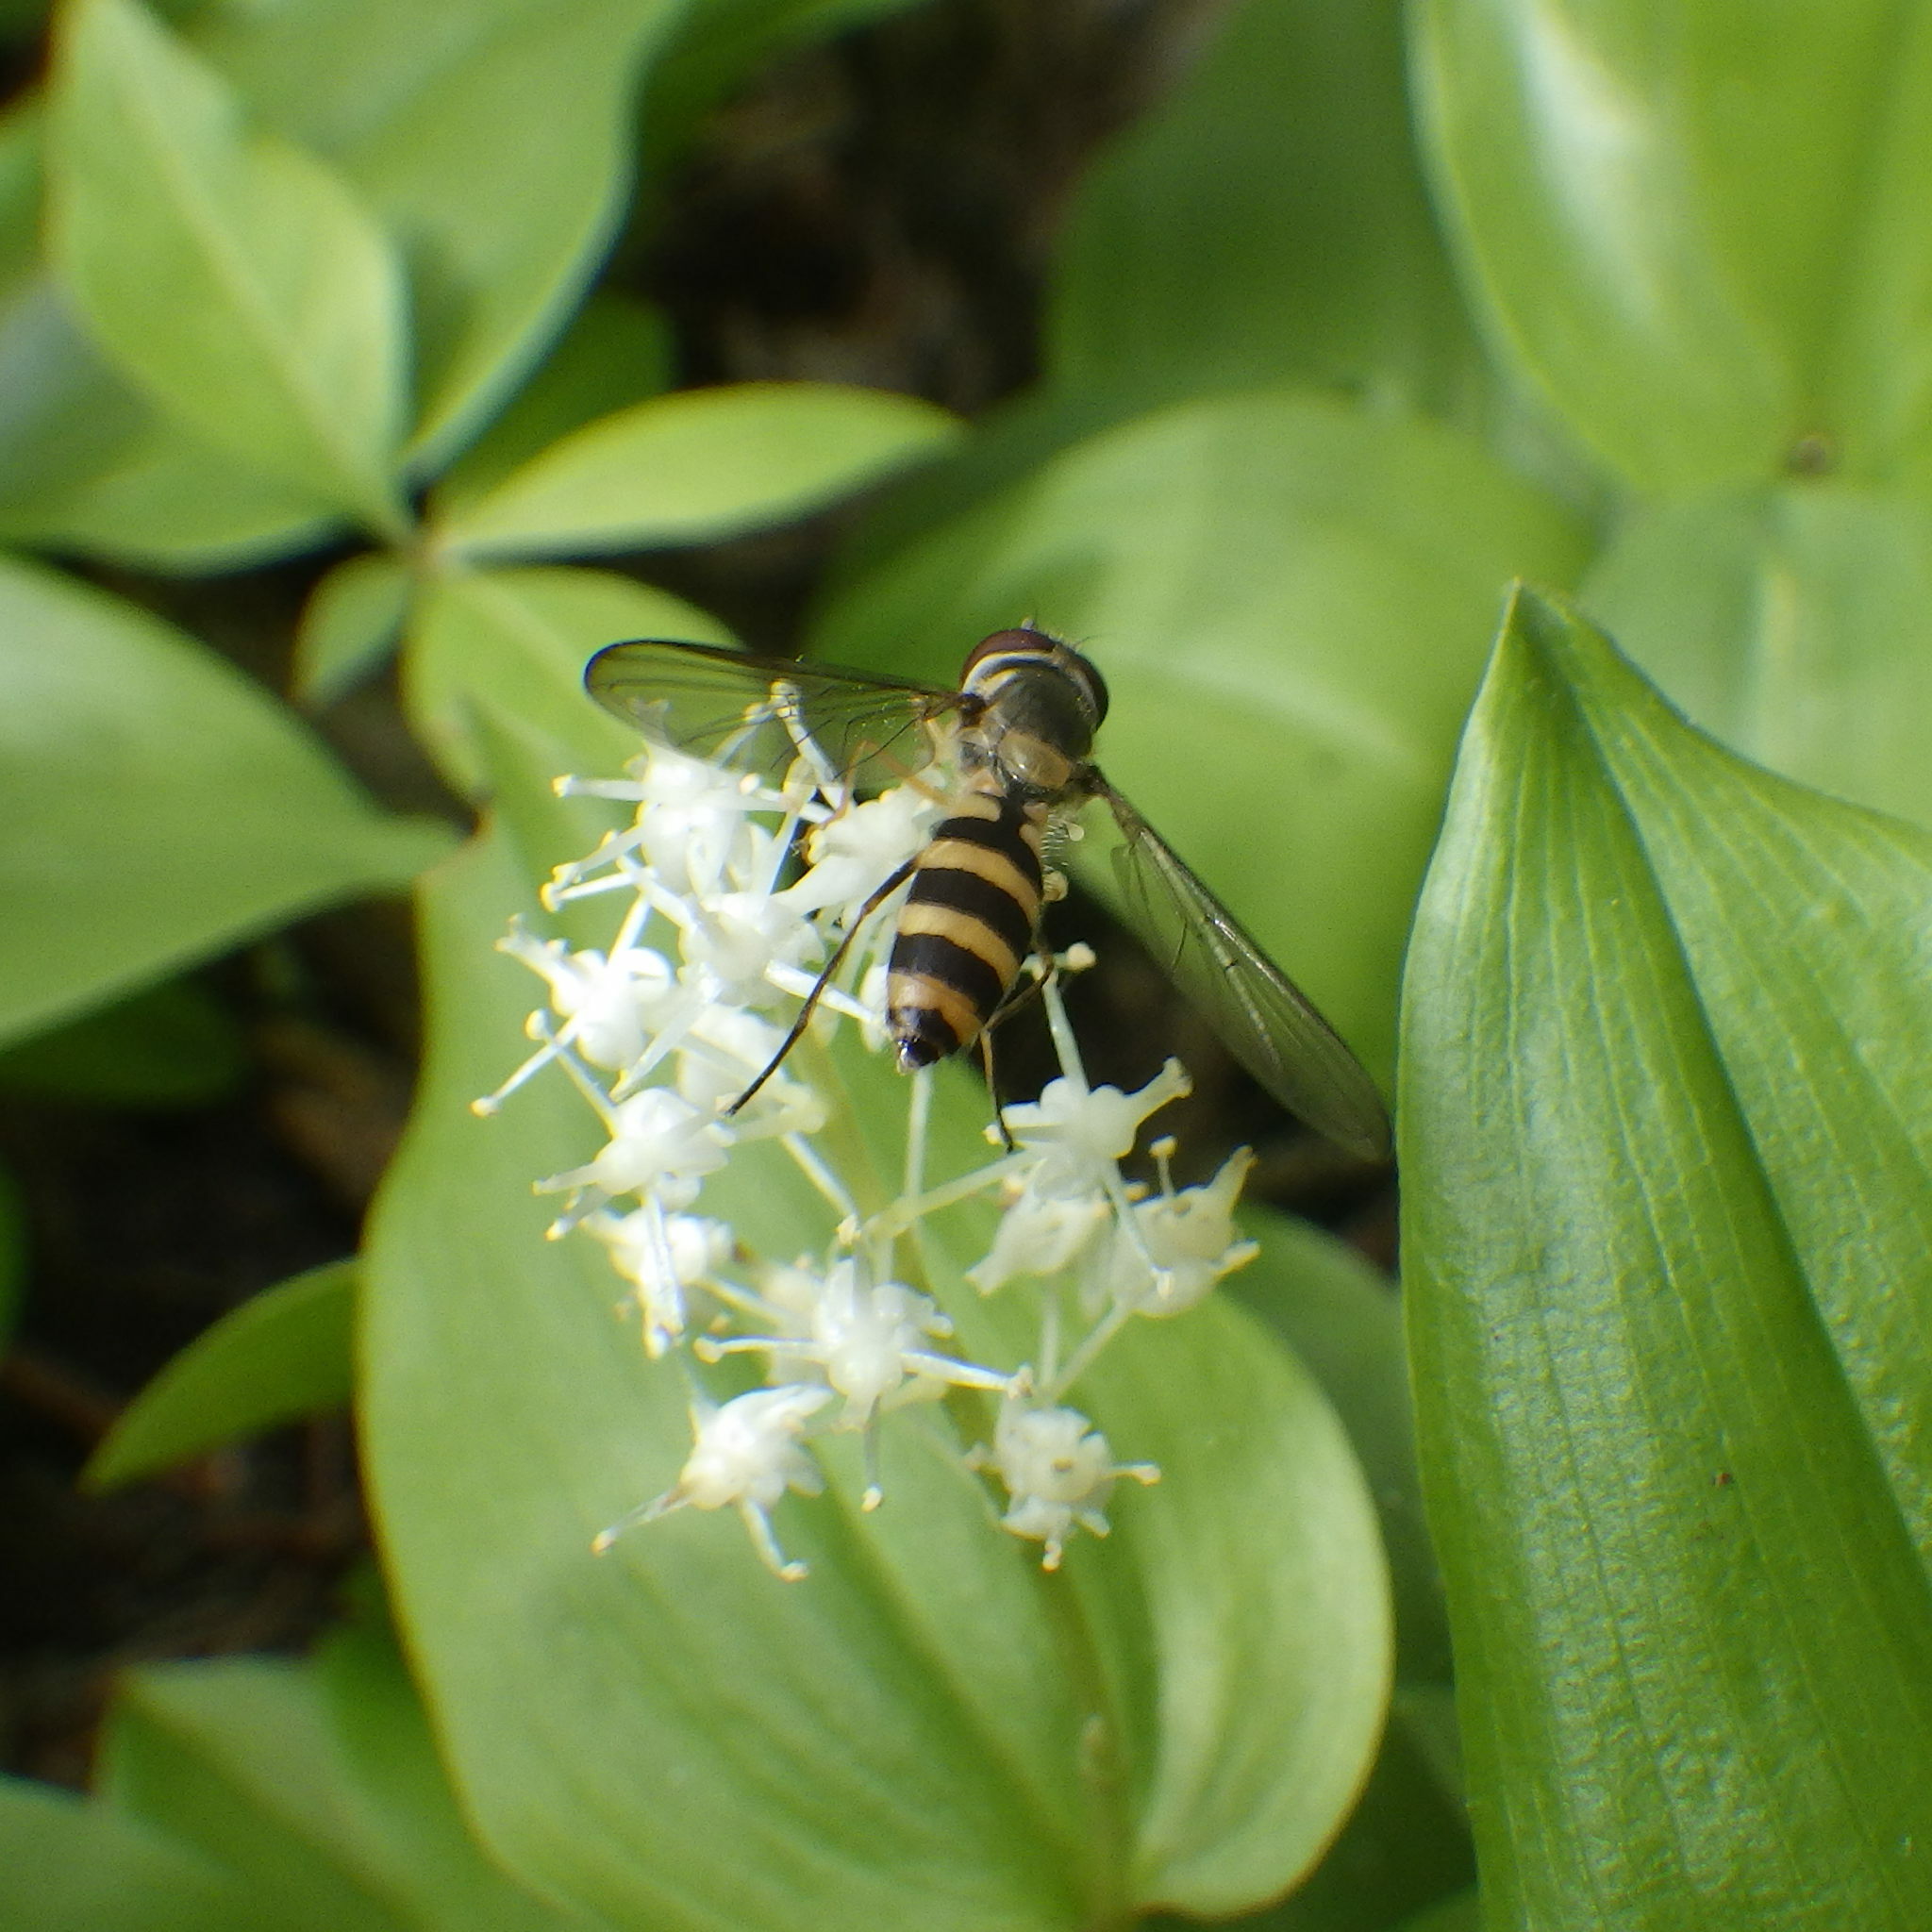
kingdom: Animalia
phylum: Arthropoda
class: Insecta
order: Diptera
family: Syrphidae
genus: Meliscaeva
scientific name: Meliscaeva cinctella
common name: American thintail fly
